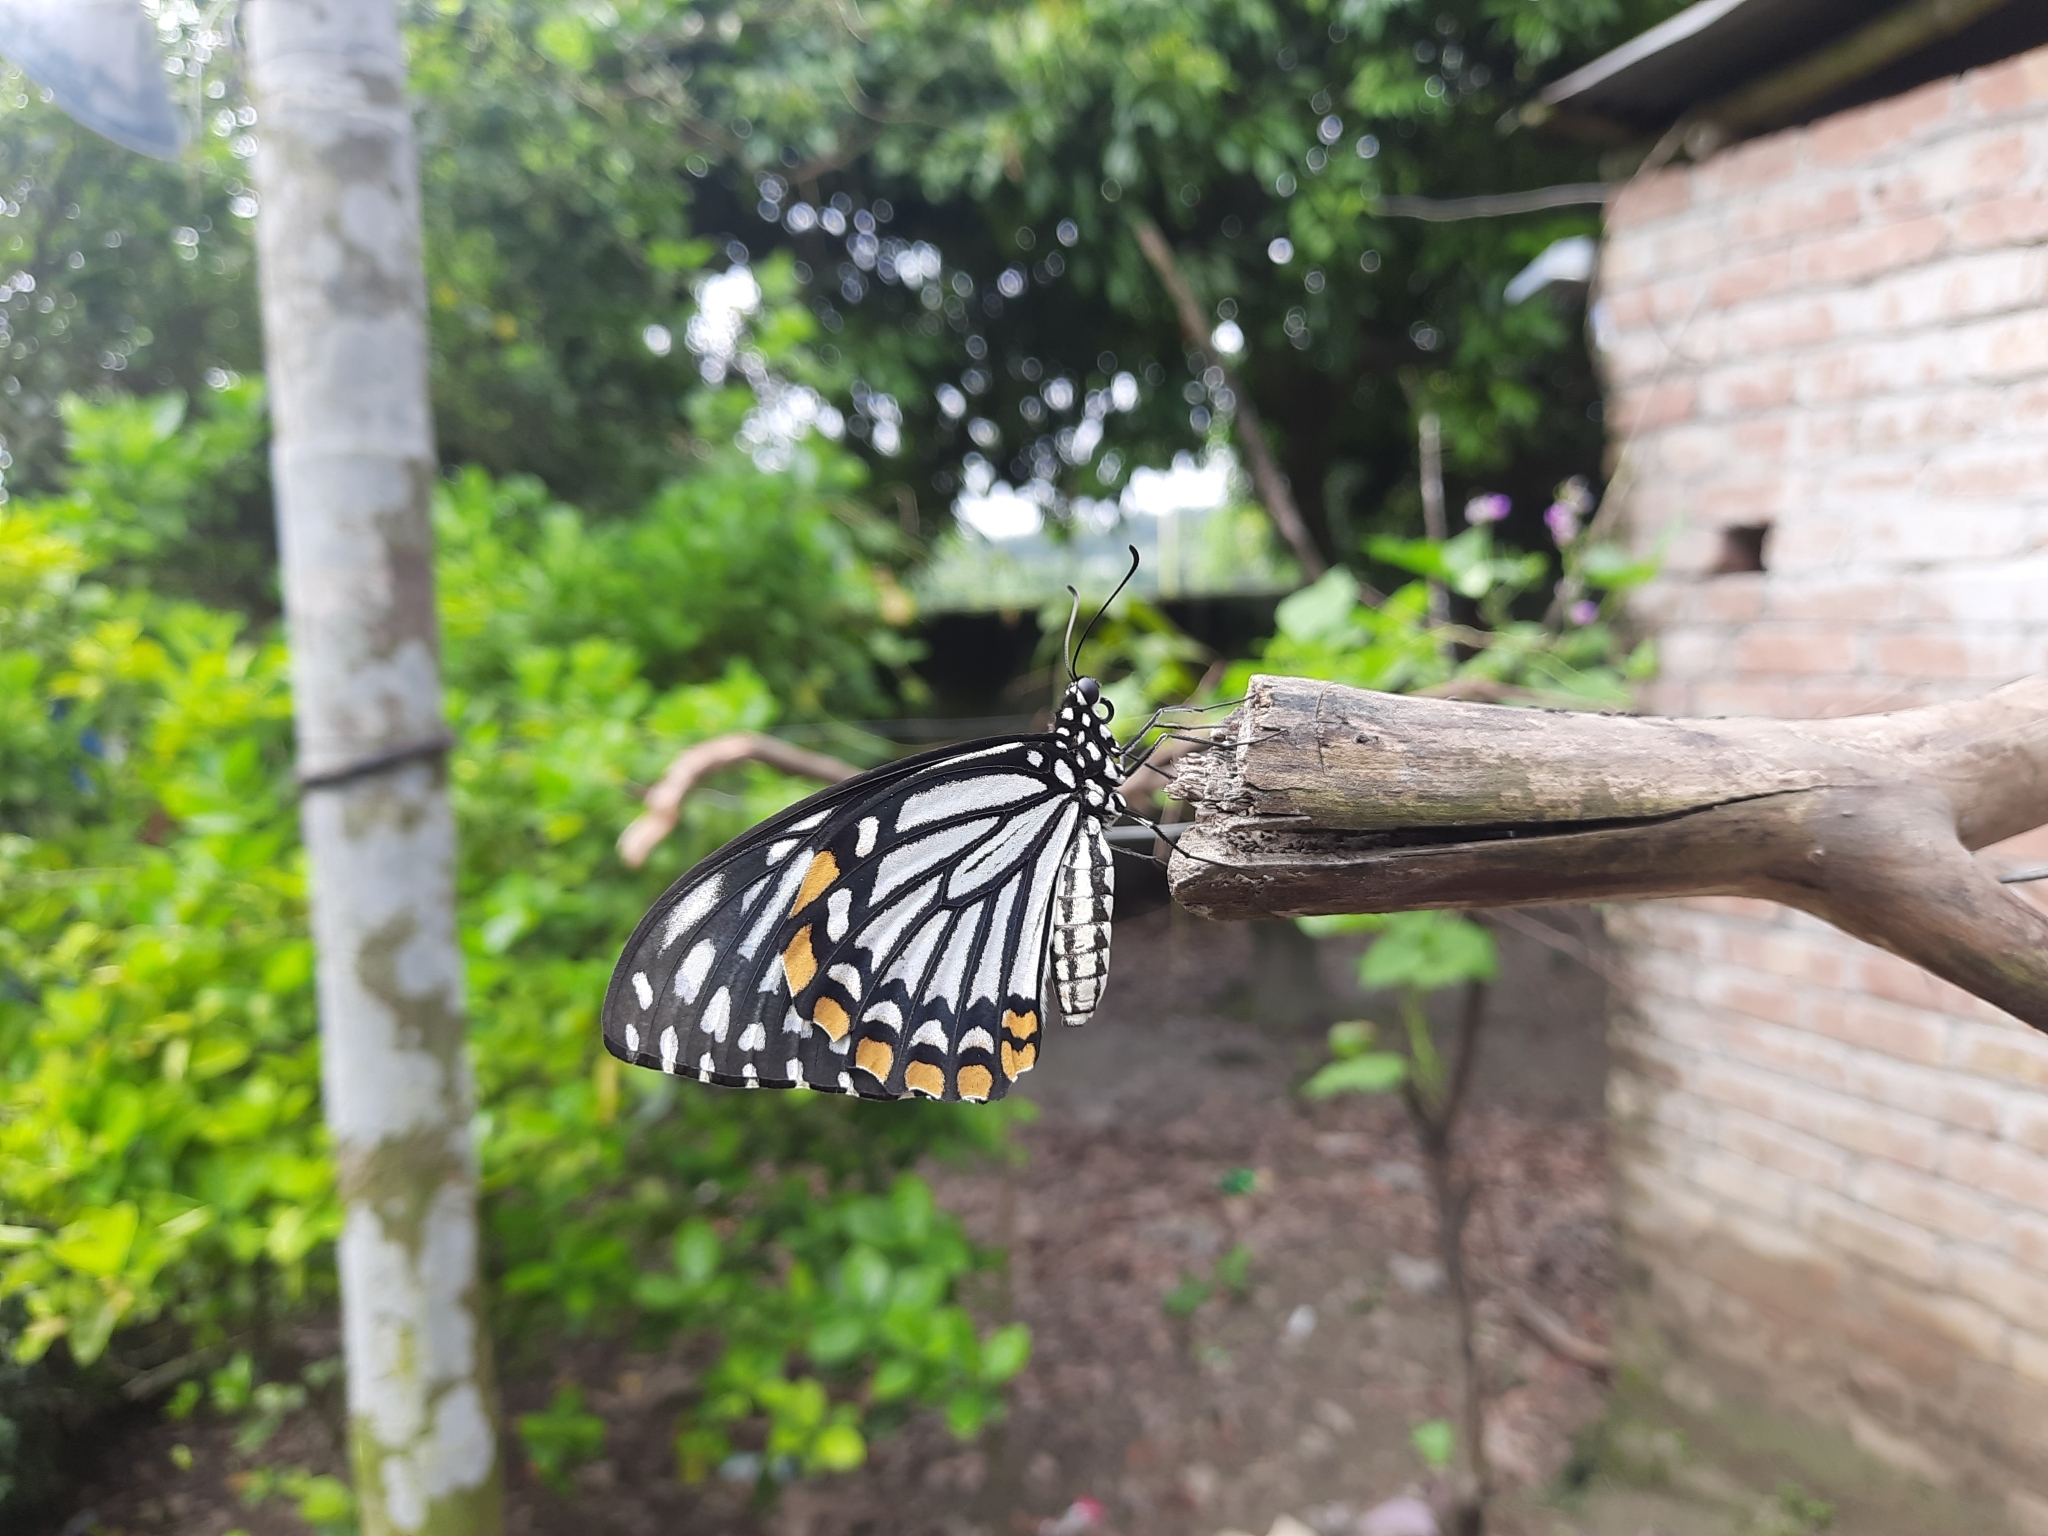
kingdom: Animalia
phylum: Arthropoda
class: Insecta
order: Lepidoptera
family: Papilionidae
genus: Chilasa
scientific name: Chilasa clytia
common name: Common mime
